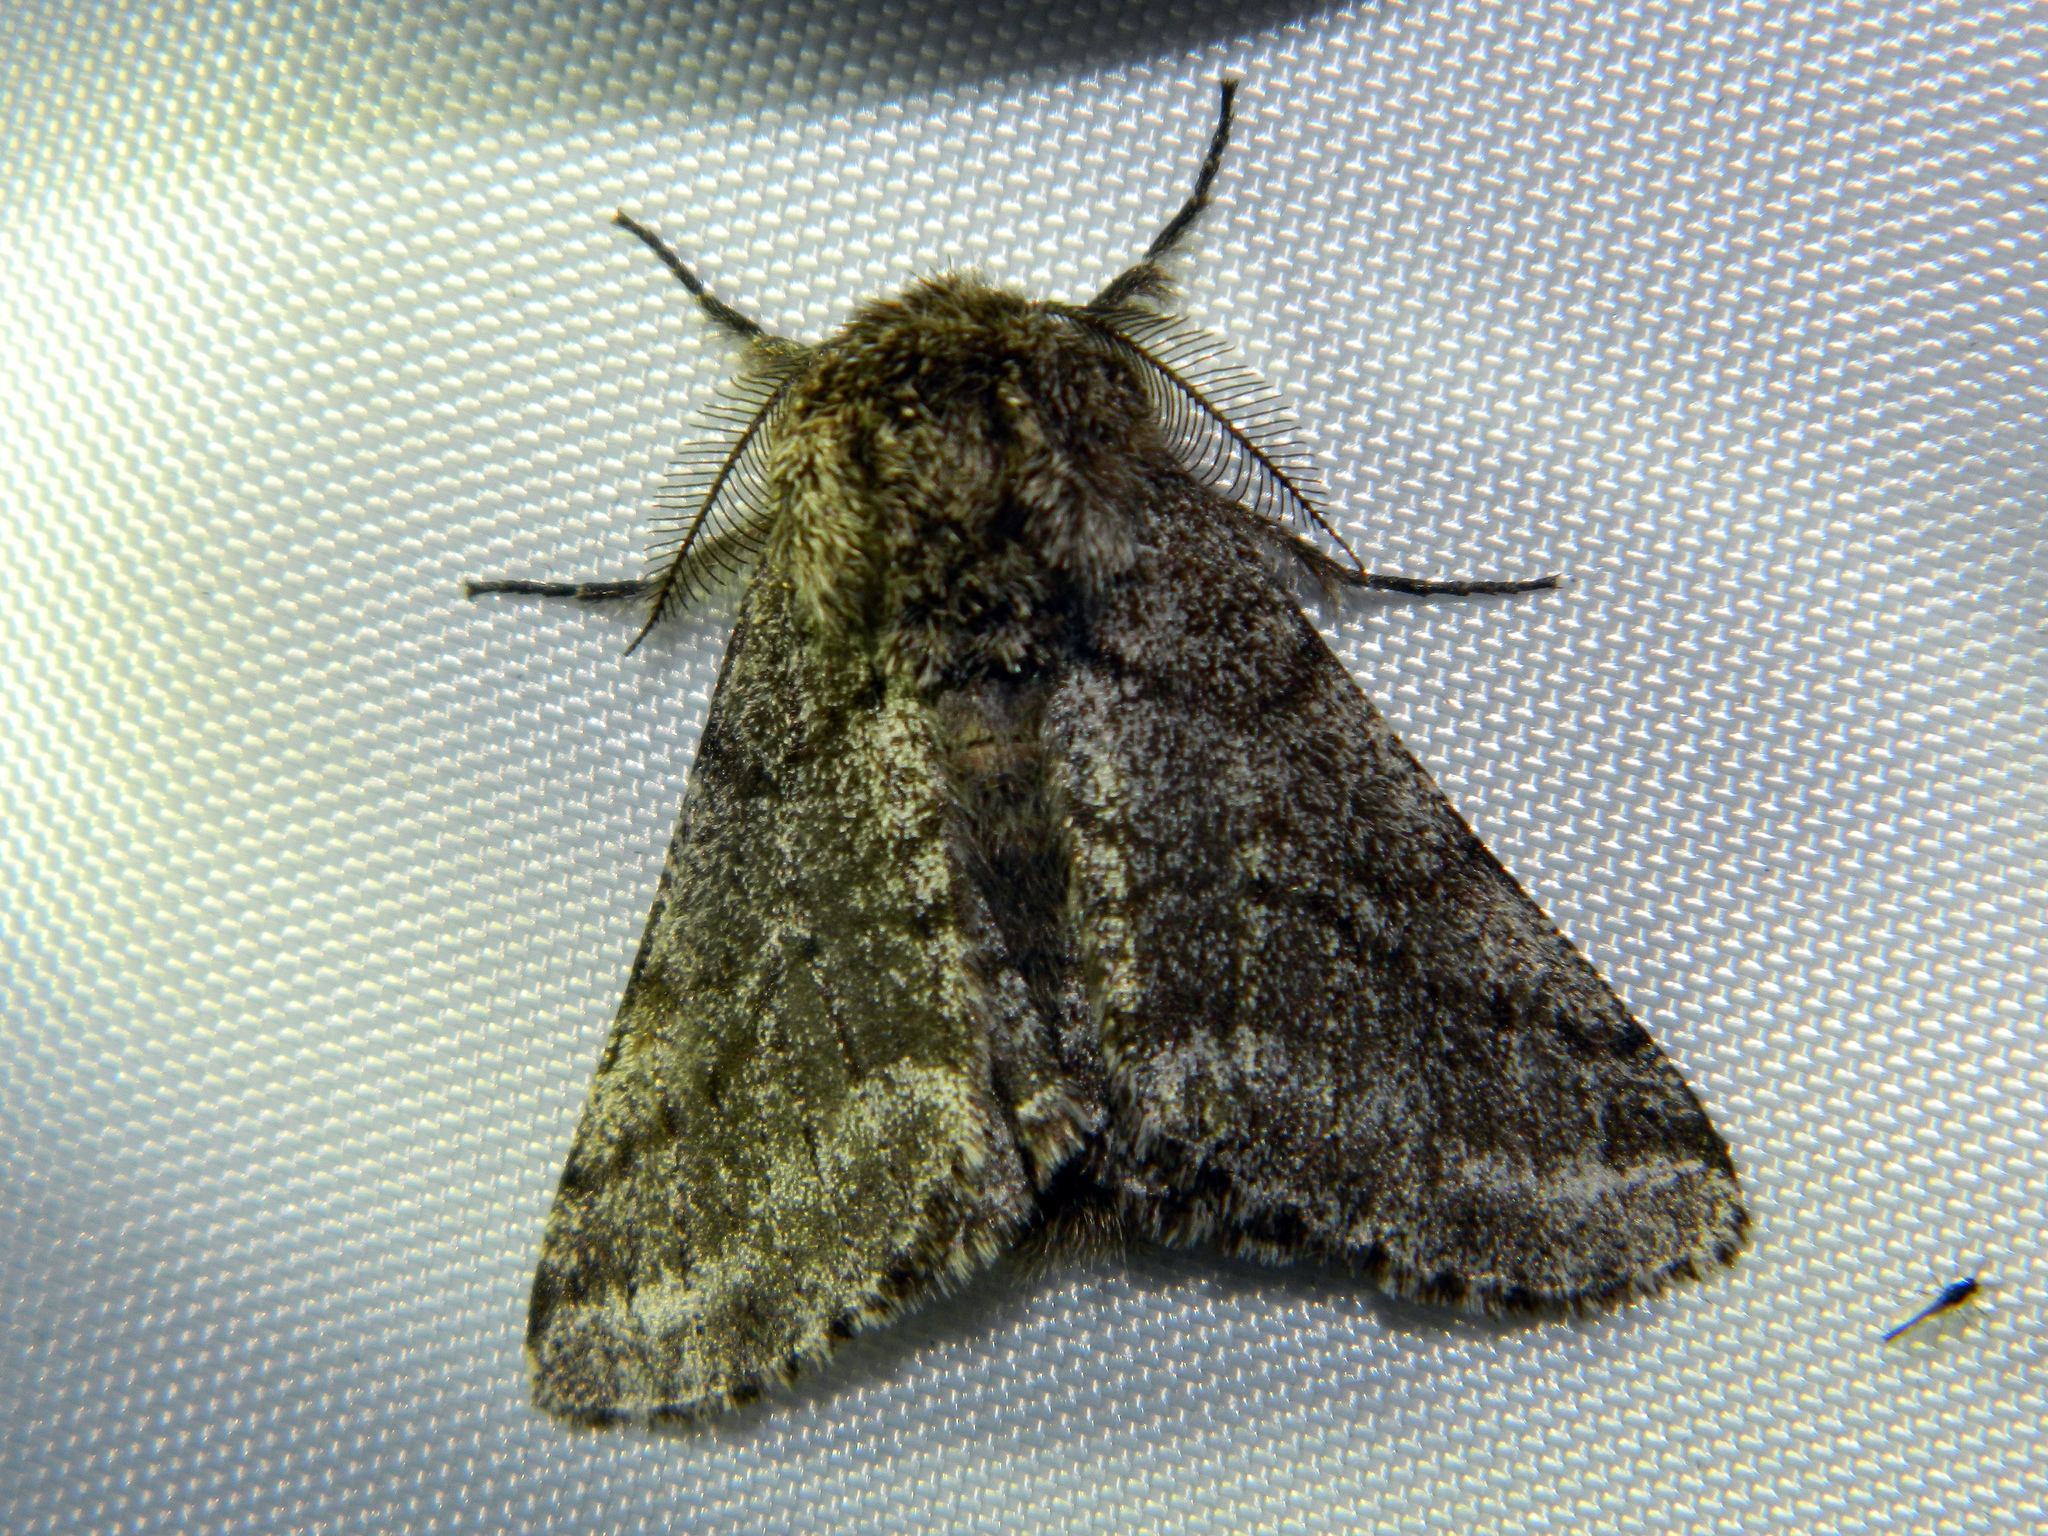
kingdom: Animalia
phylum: Arthropoda
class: Insecta
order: Lepidoptera
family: Geometridae
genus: Lycia
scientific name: Lycia ursaria
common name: Stout spanworm
